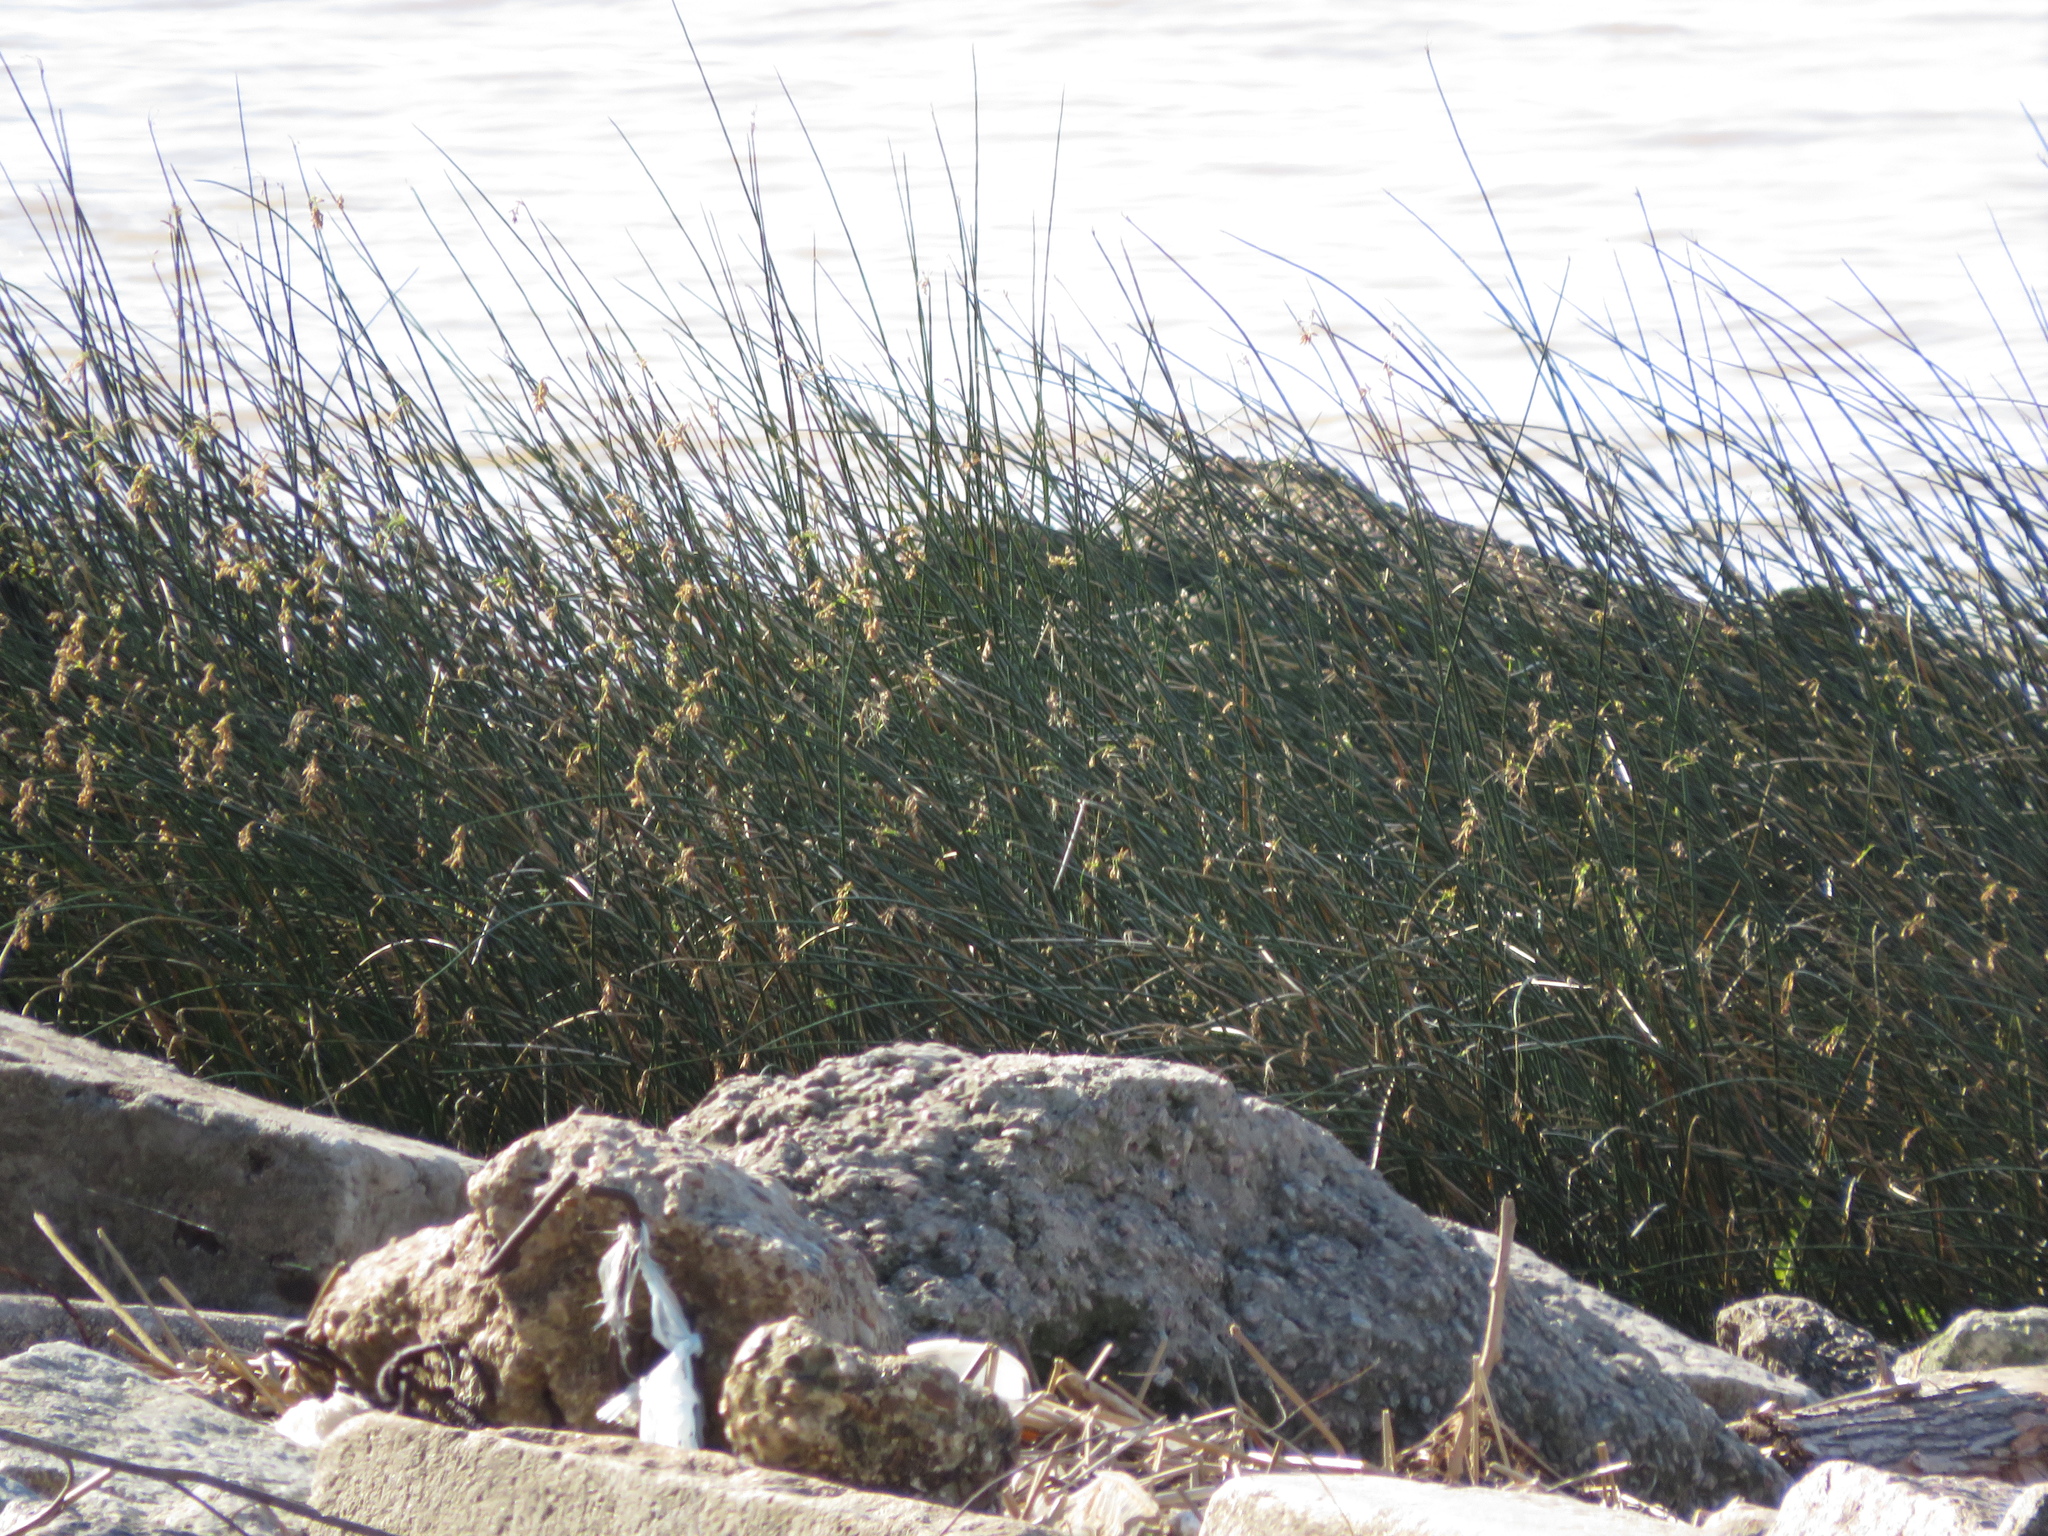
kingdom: Plantae
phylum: Tracheophyta
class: Liliopsida
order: Poales
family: Cyperaceae
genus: Schoenoplectus
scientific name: Schoenoplectus californicus
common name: California bulrush
